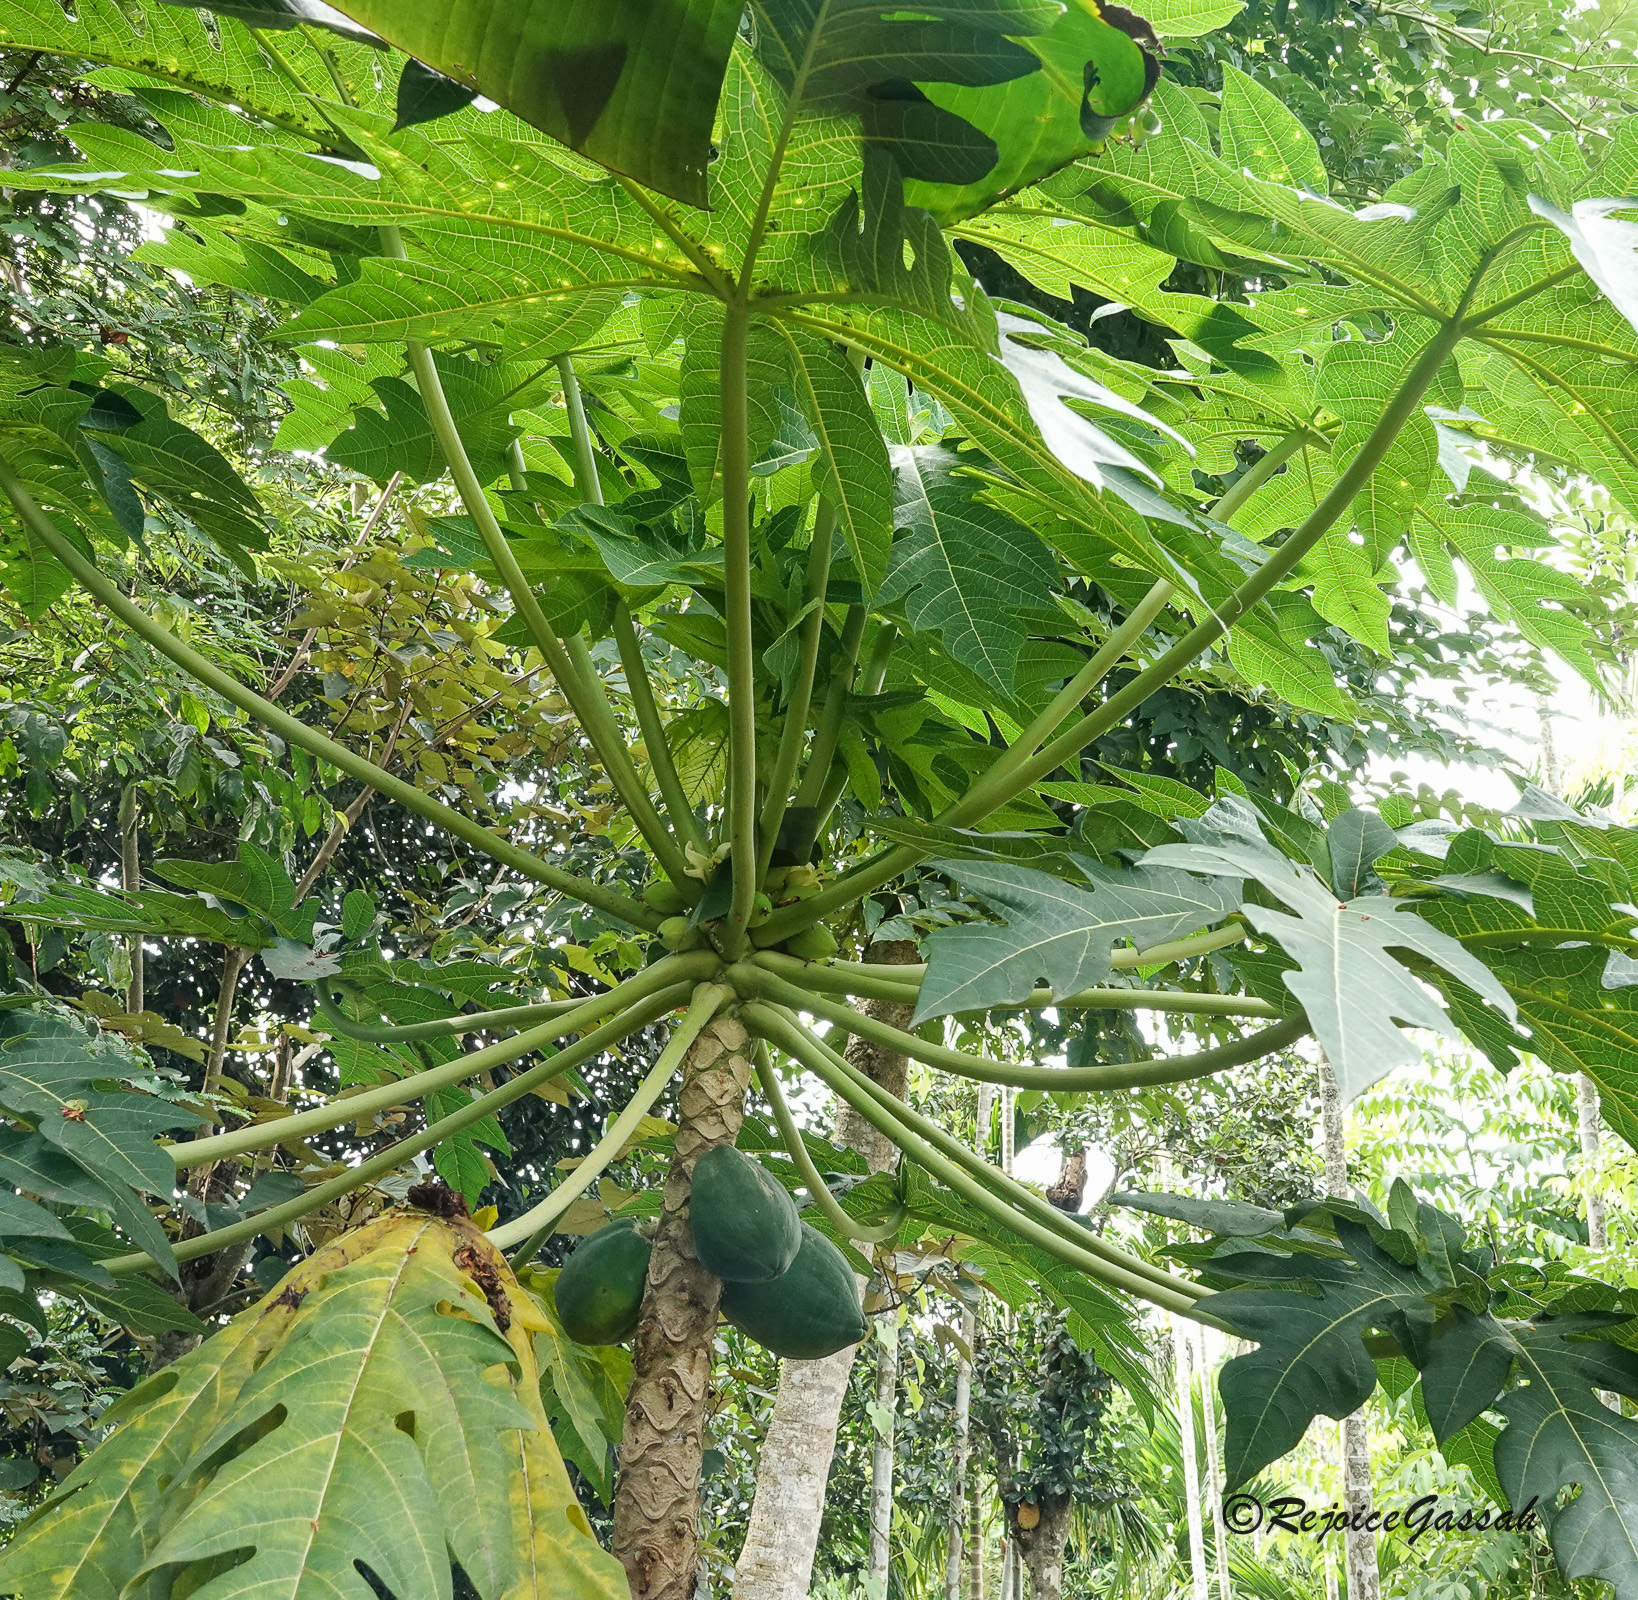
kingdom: Plantae
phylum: Tracheophyta
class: Magnoliopsida
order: Brassicales
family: Caricaceae
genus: Carica
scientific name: Carica papaya
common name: Papaya
